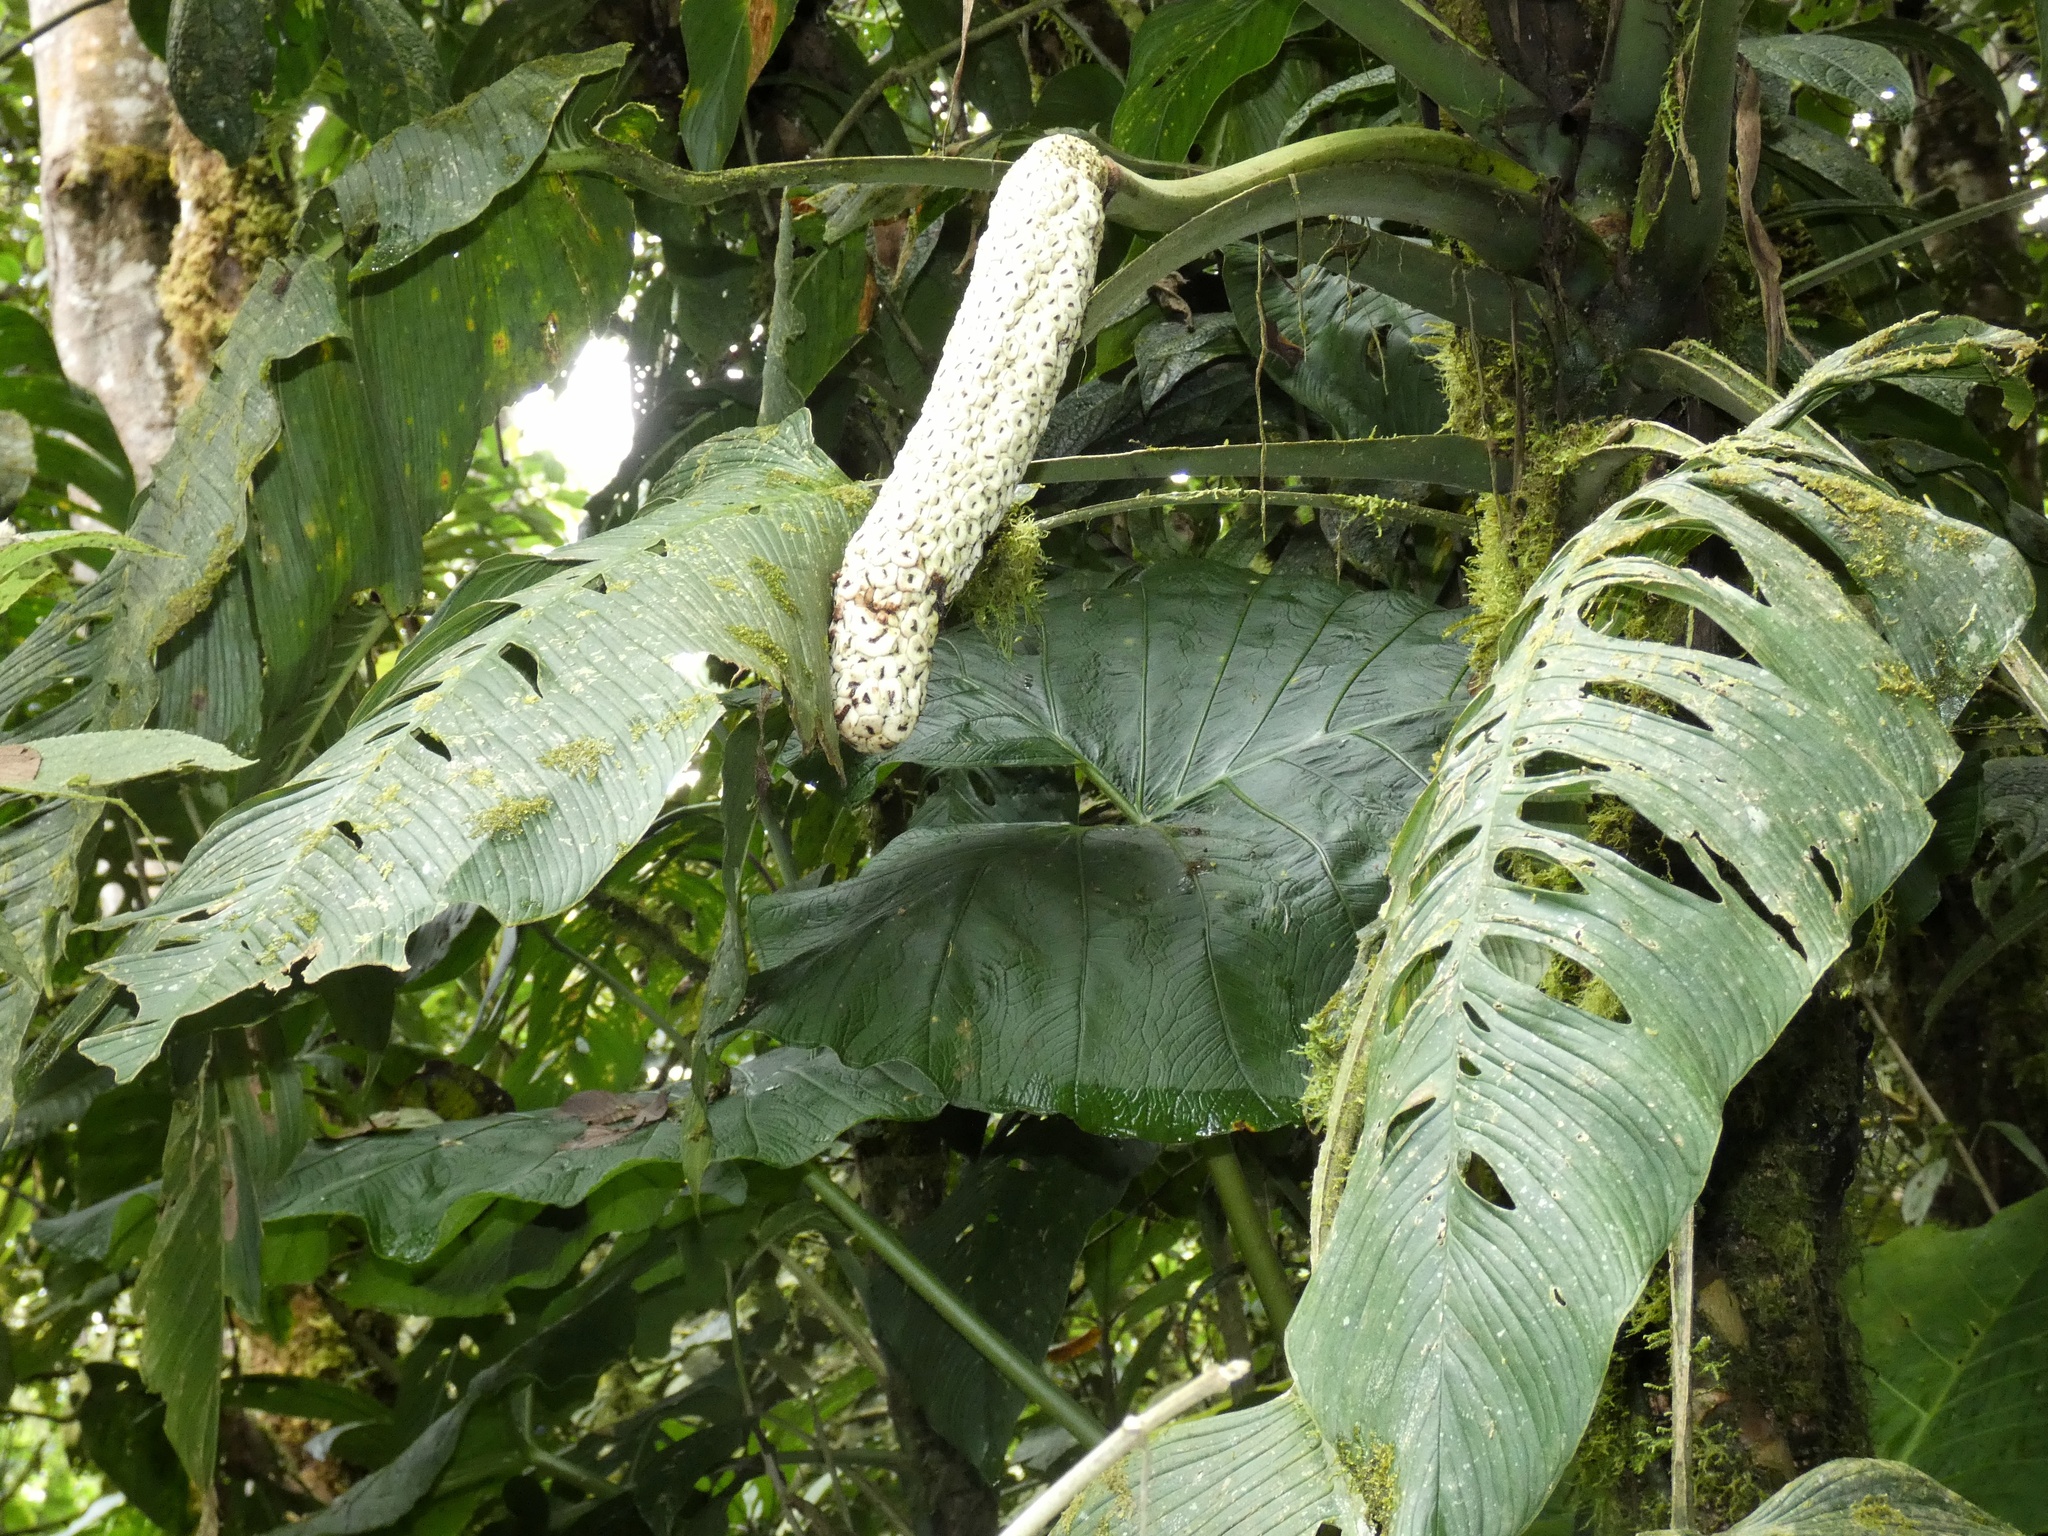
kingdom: Plantae
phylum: Tracheophyta
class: Liliopsida
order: Alismatales
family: Araceae
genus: Monstera
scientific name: Monstera oreophila
